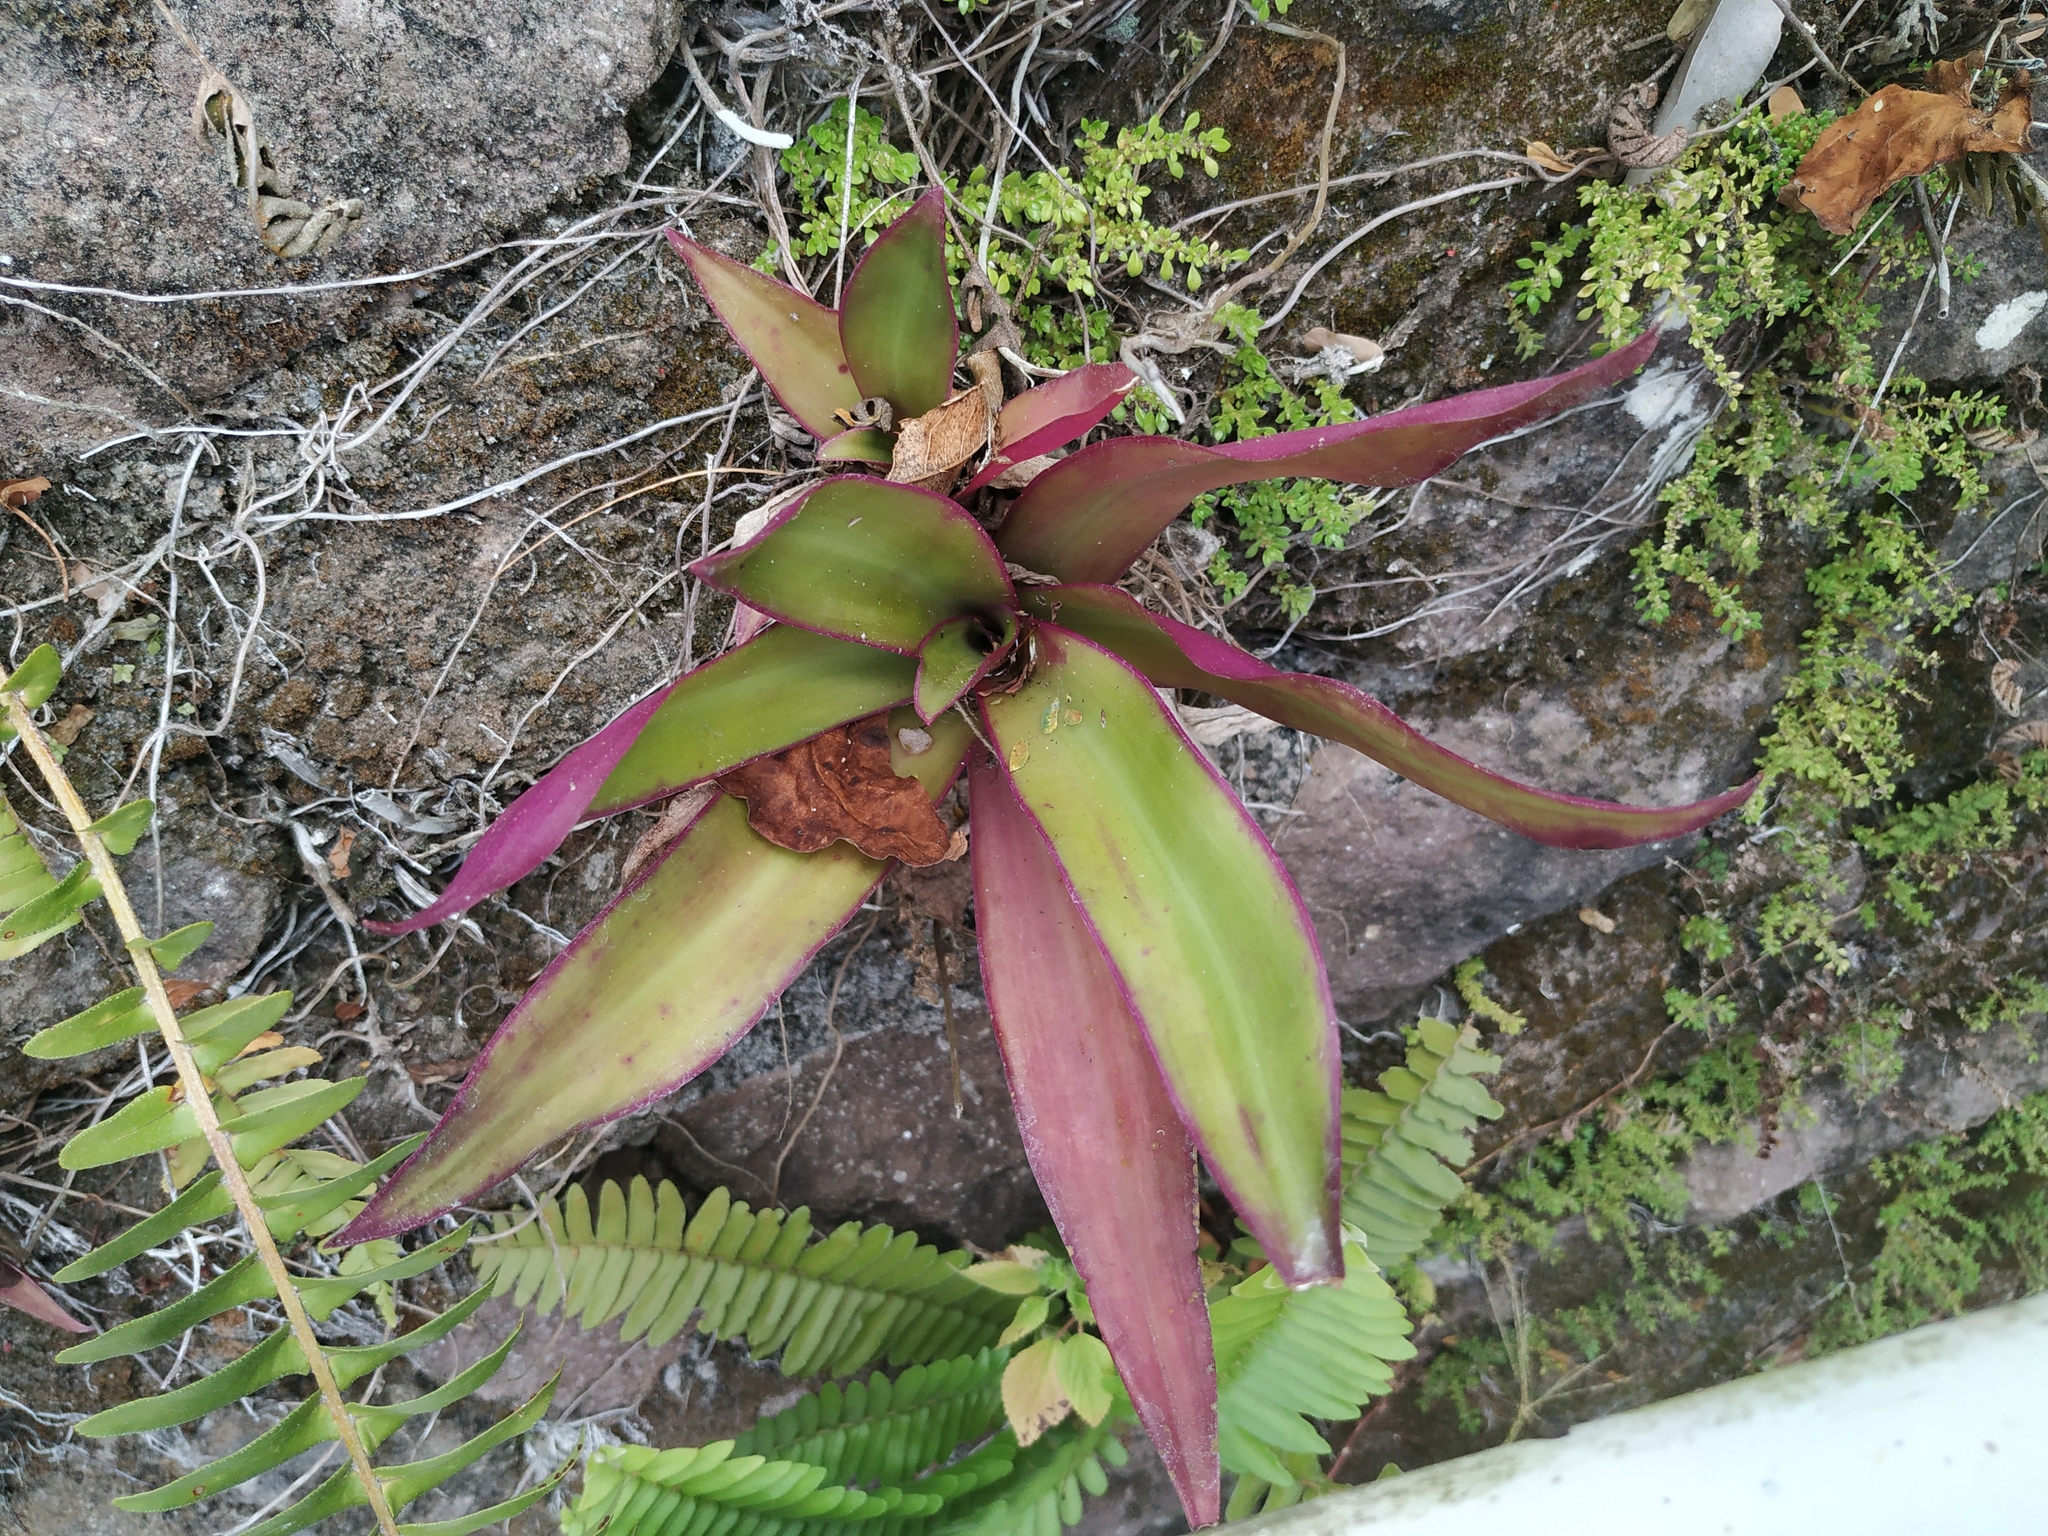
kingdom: Plantae
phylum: Tracheophyta
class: Liliopsida
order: Commelinales
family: Commelinaceae
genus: Tradescantia
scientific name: Tradescantia spathacea
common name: Boatlily
